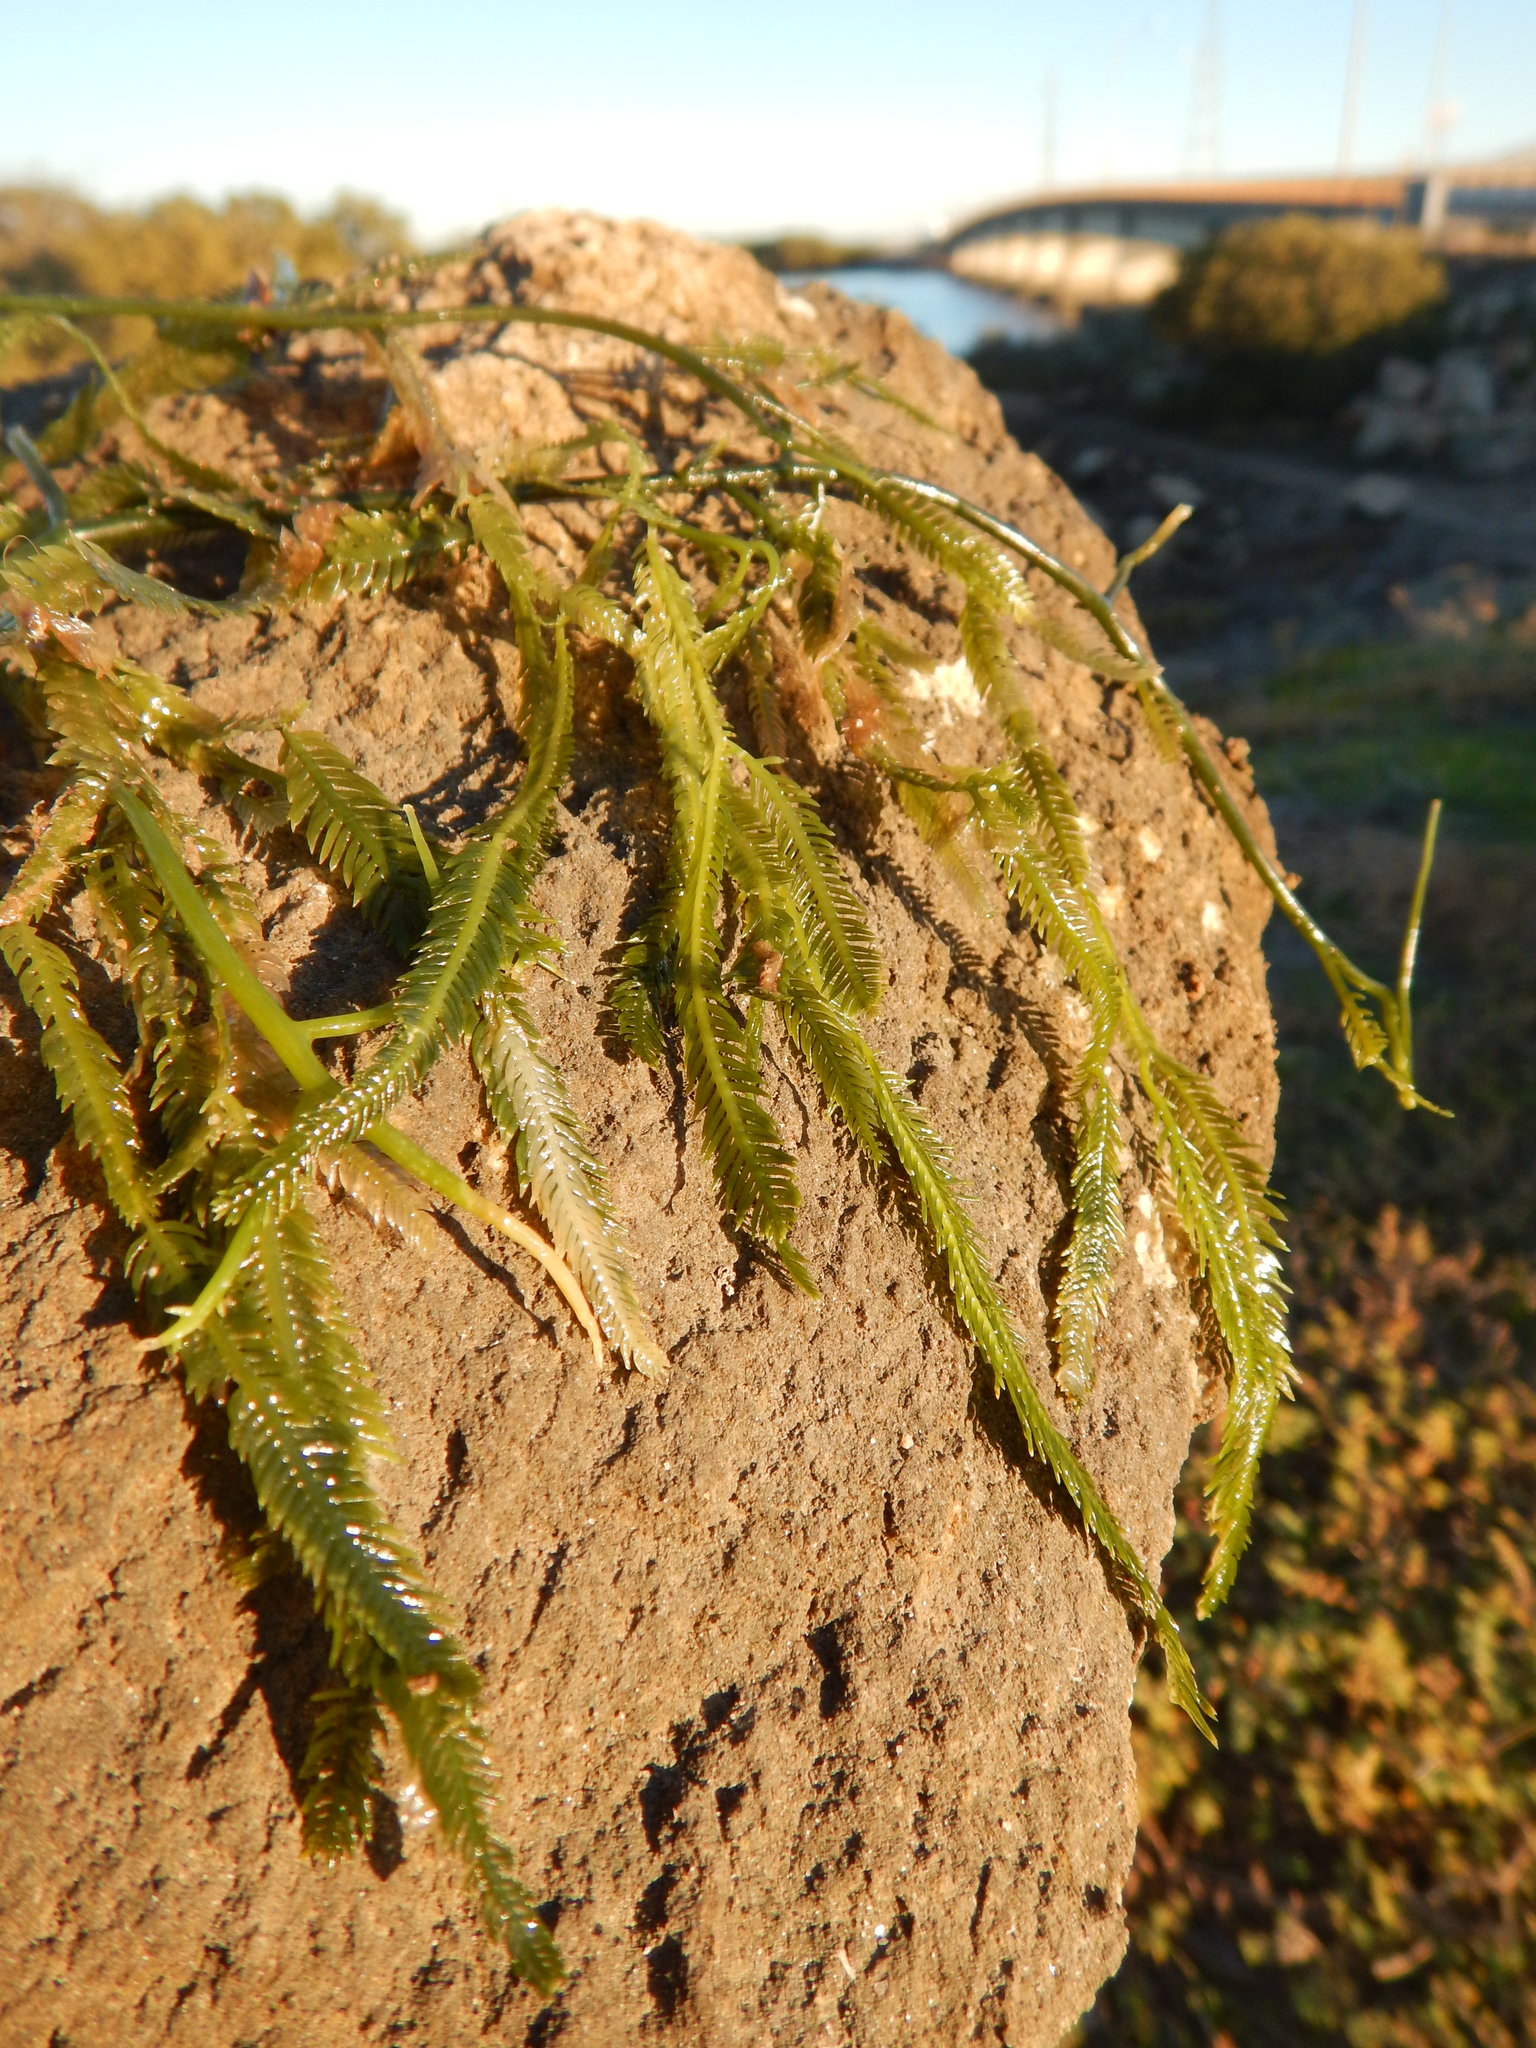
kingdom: Plantae
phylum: Chlorophyta
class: Ulvophyceae
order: Bryopsidales
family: Caulerpaceae
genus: Caulerpa
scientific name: Caulerpa taxifolia
